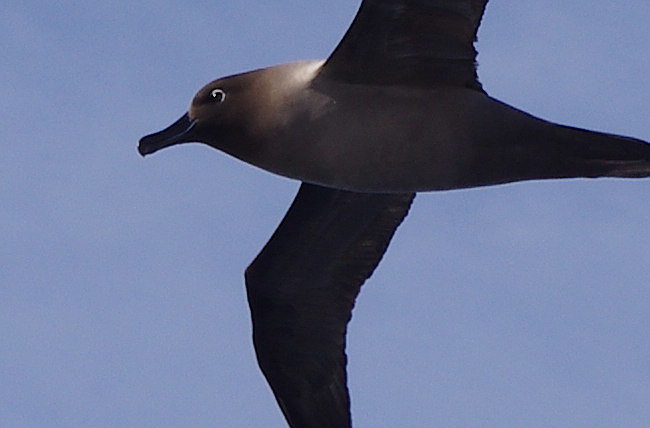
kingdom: Animalia
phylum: Chordata
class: Aves
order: Procellariiformes
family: Diomedeidae
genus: Phoebetria
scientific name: Phoebetria palpebrata
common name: Light-mantled albatross
